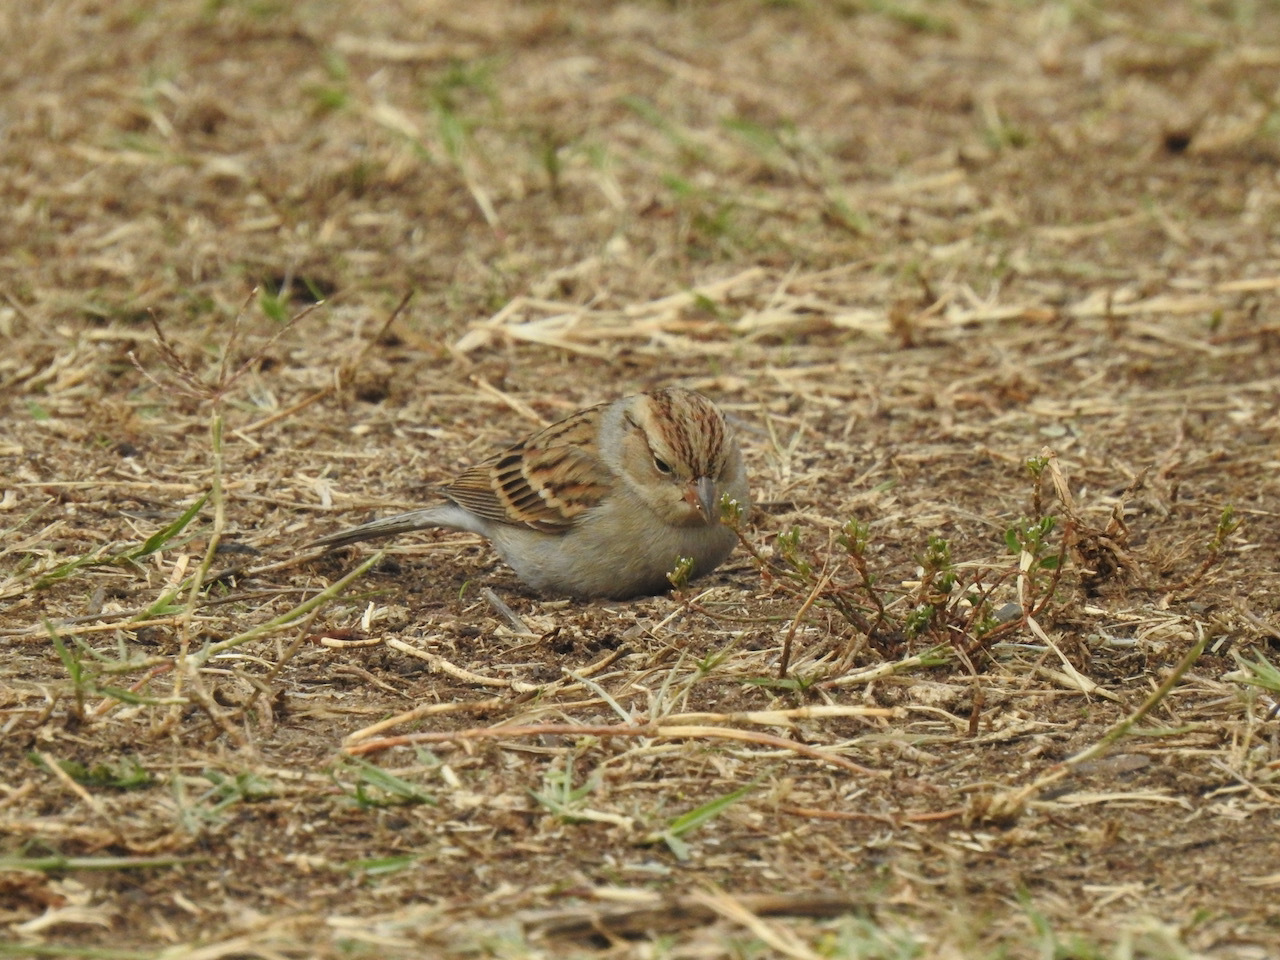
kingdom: Animalia
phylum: Chordata
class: Aves
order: Passeriformes
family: Passerellidae
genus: Spizella
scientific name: Spizella passerina
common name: Chipping sparrow
